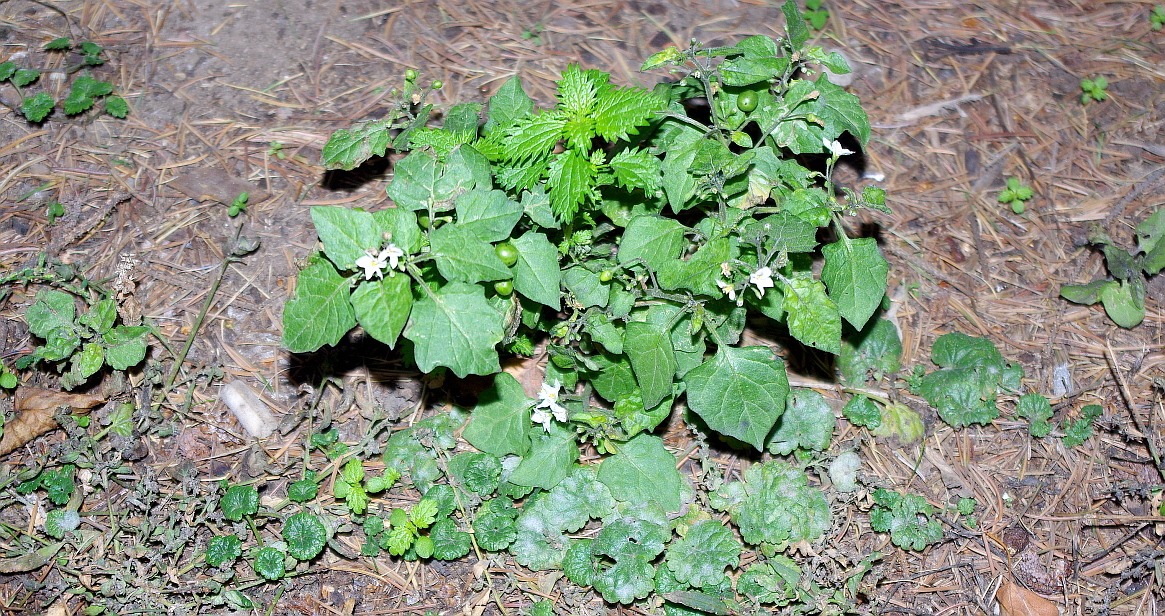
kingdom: Plantae
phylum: Tracheophyta
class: Magnoliopsida
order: Lamiales
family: Lamiaceae
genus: Glechoma
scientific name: Glechoma hederacea
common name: Ground ivy
